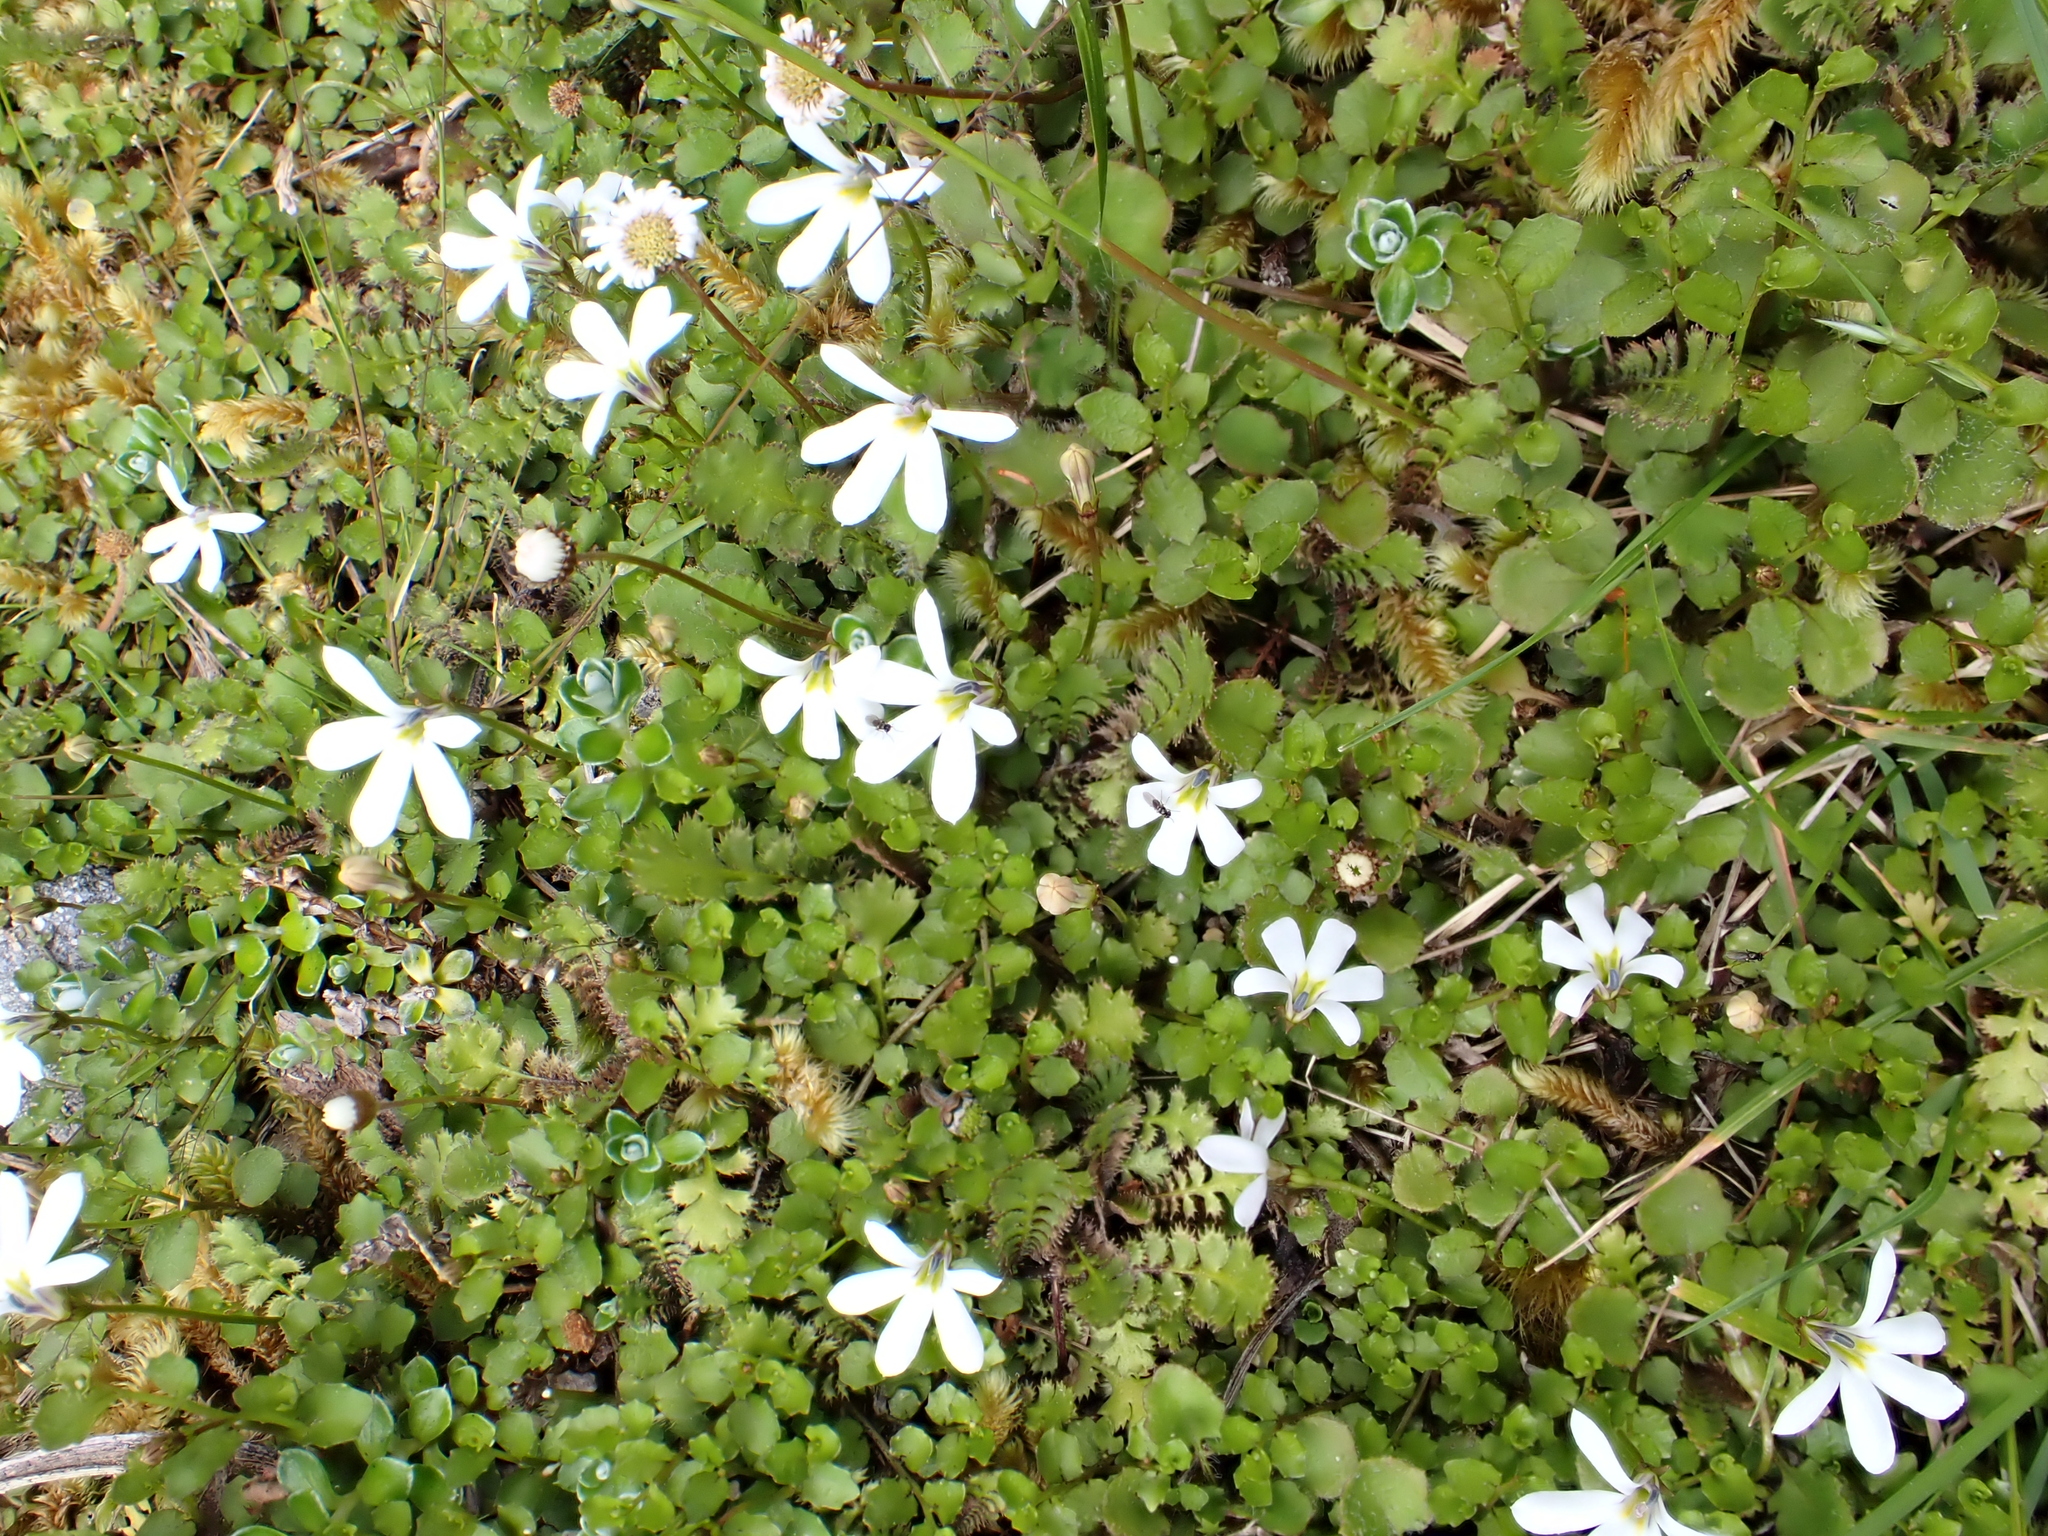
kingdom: Plantae
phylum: Tracheophyta
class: Magnoliopsida
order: Asterales
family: Campanulaceae
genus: Lobelia
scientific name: Lobelia angulata
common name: Lawn lobelia
